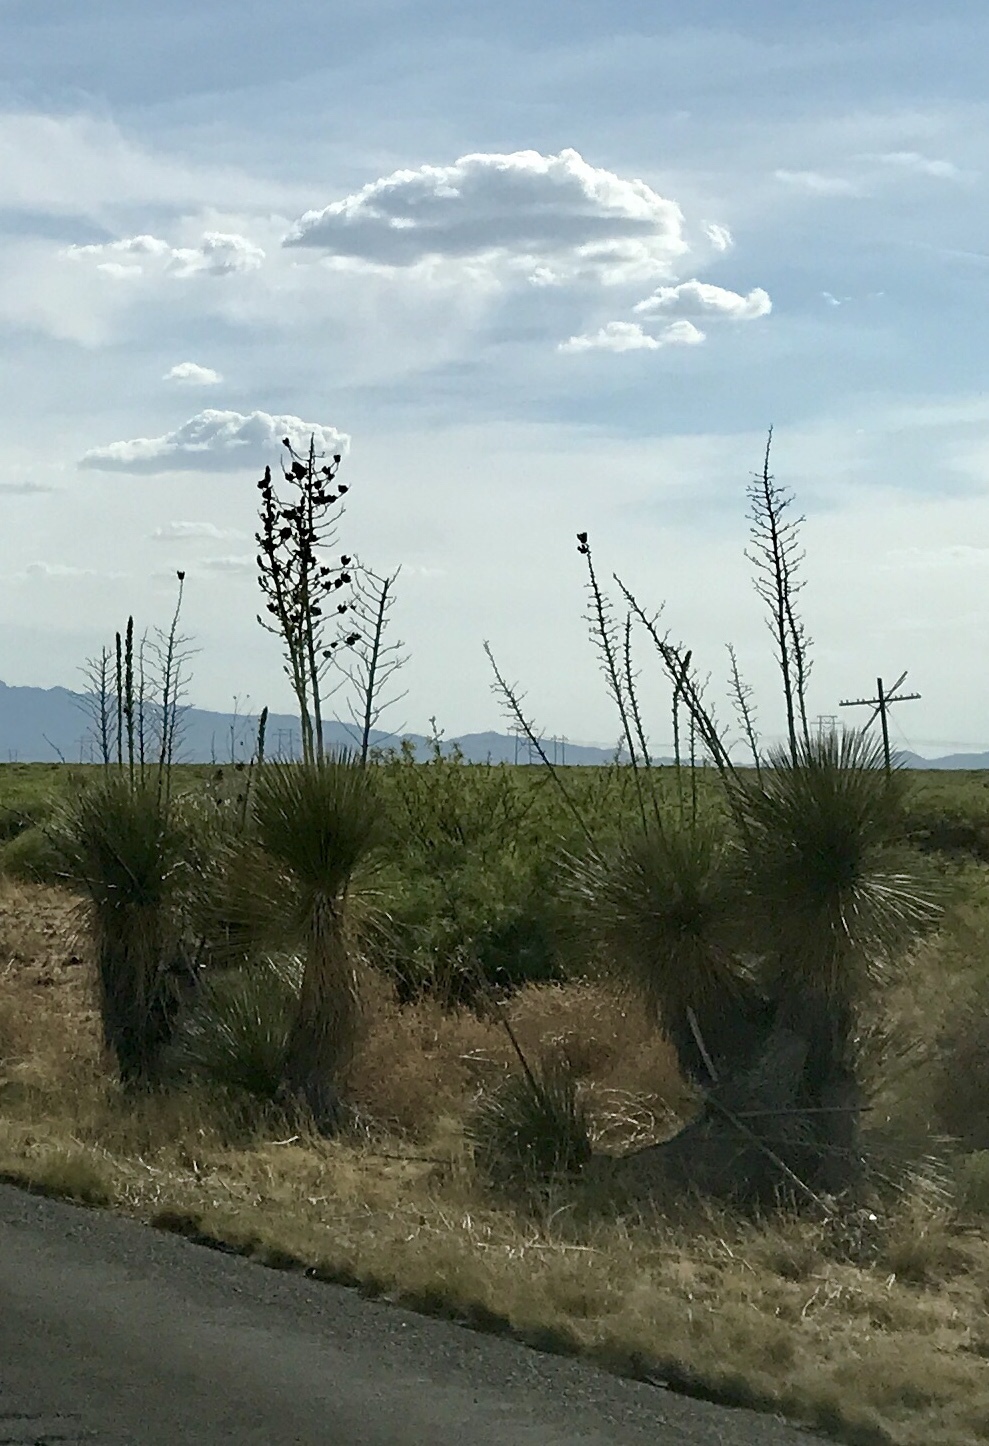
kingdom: Plantae
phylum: Tracheophyta
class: Liliopsida
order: Asparagales
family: Asparagaceae
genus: Yucca
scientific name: Yucca elata
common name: Palmella
